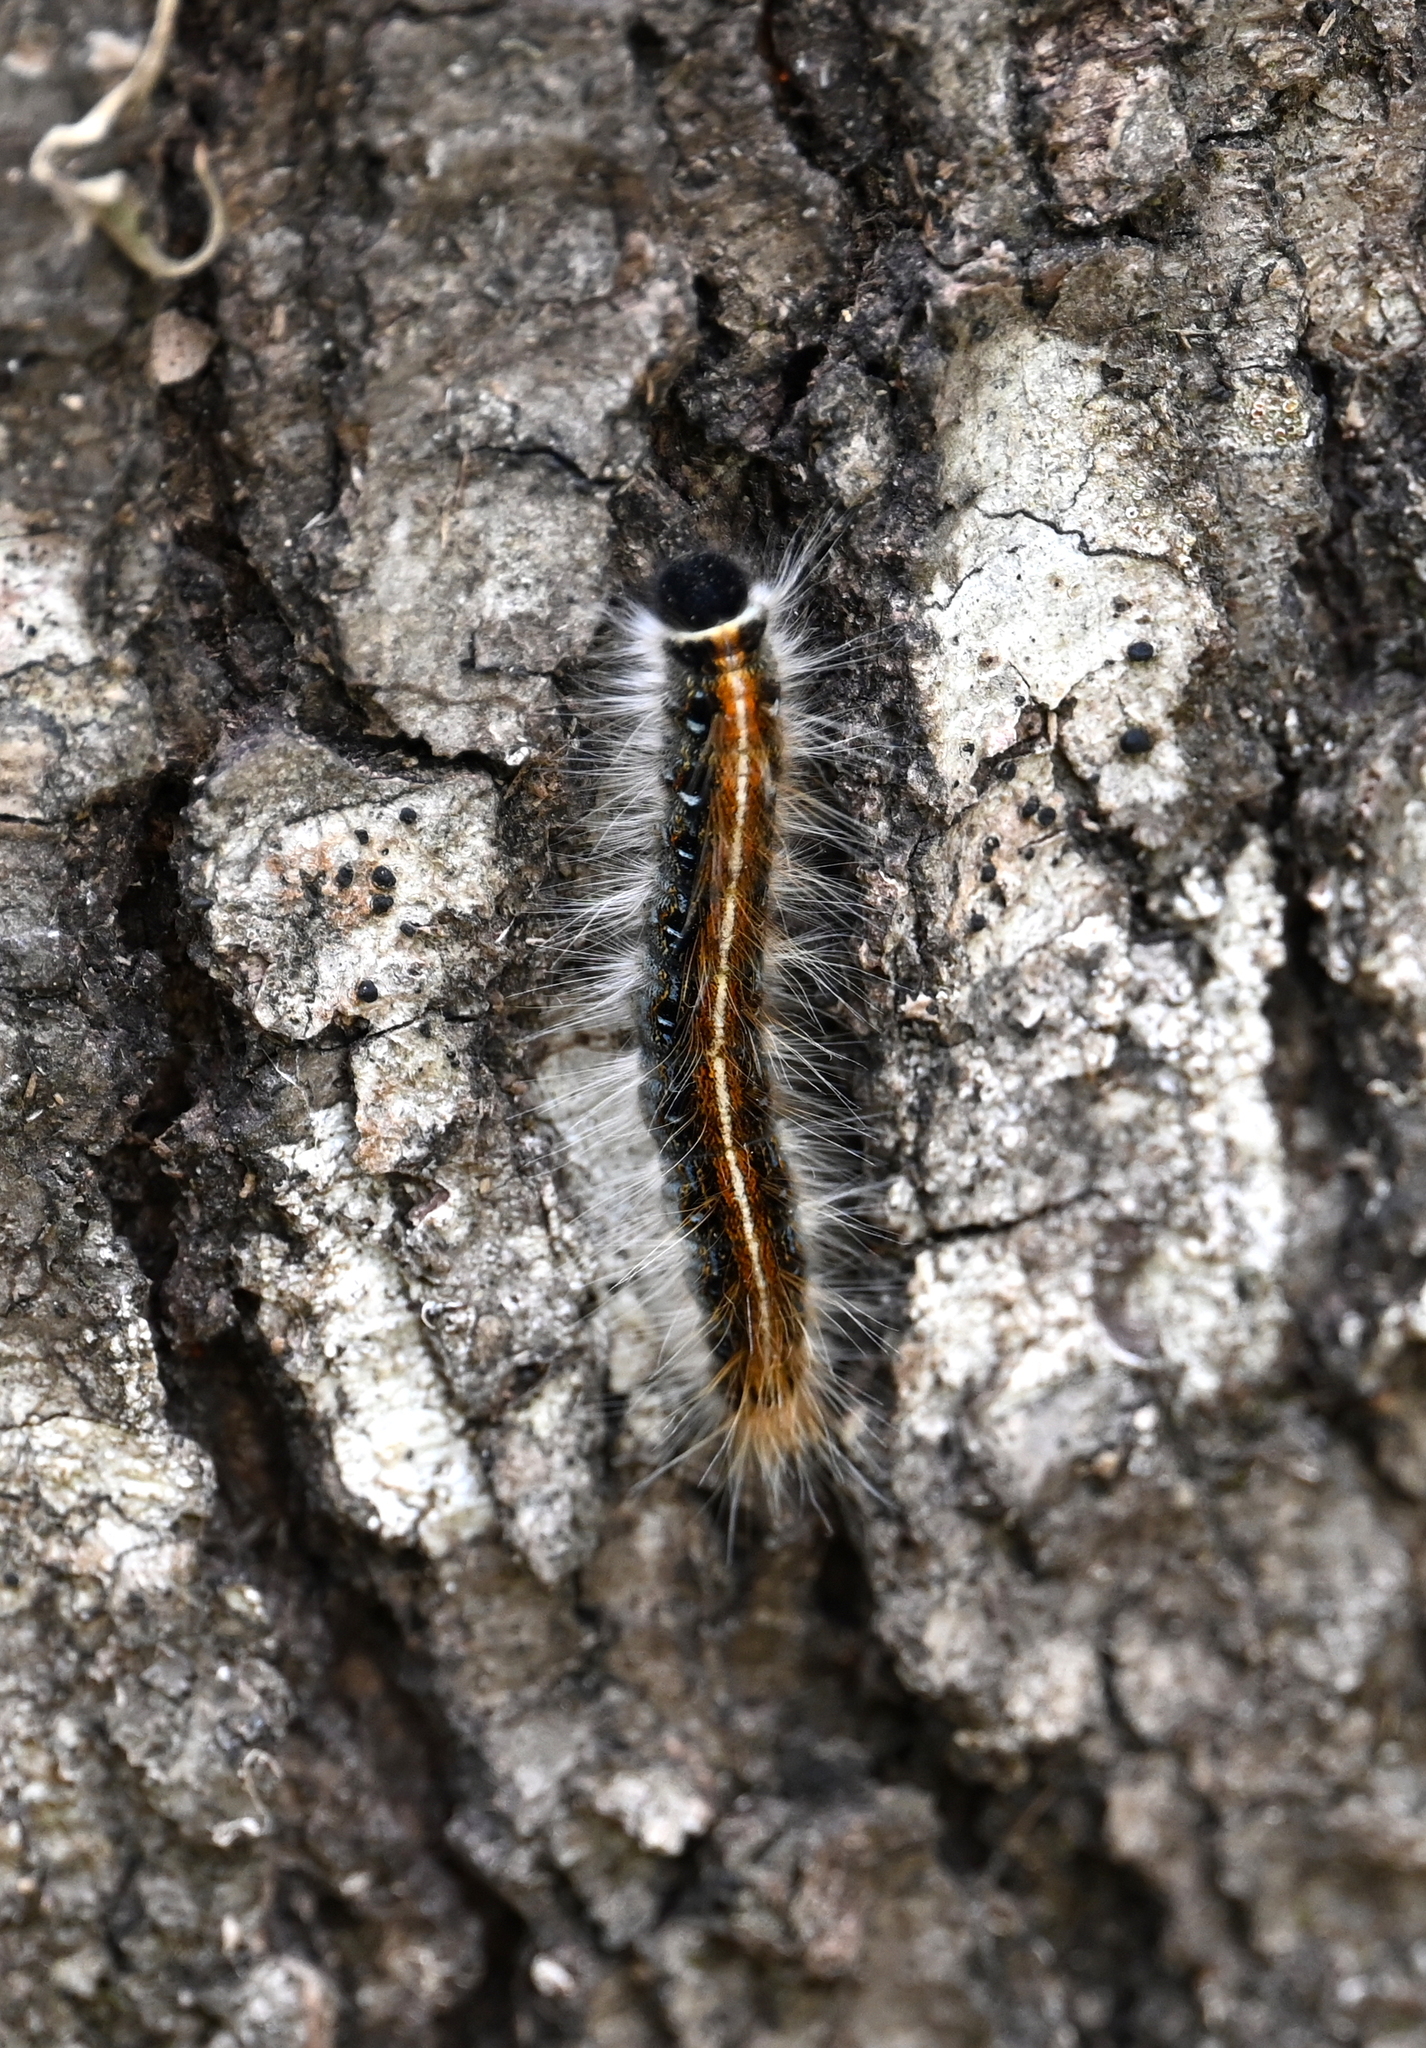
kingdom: Animalia
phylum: Arthropoda
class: Insecta
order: Lepidoptera
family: Lasiocampidae
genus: Malacosoma
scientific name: Malacosoma americana
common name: Eastern tent caterpillar moth
